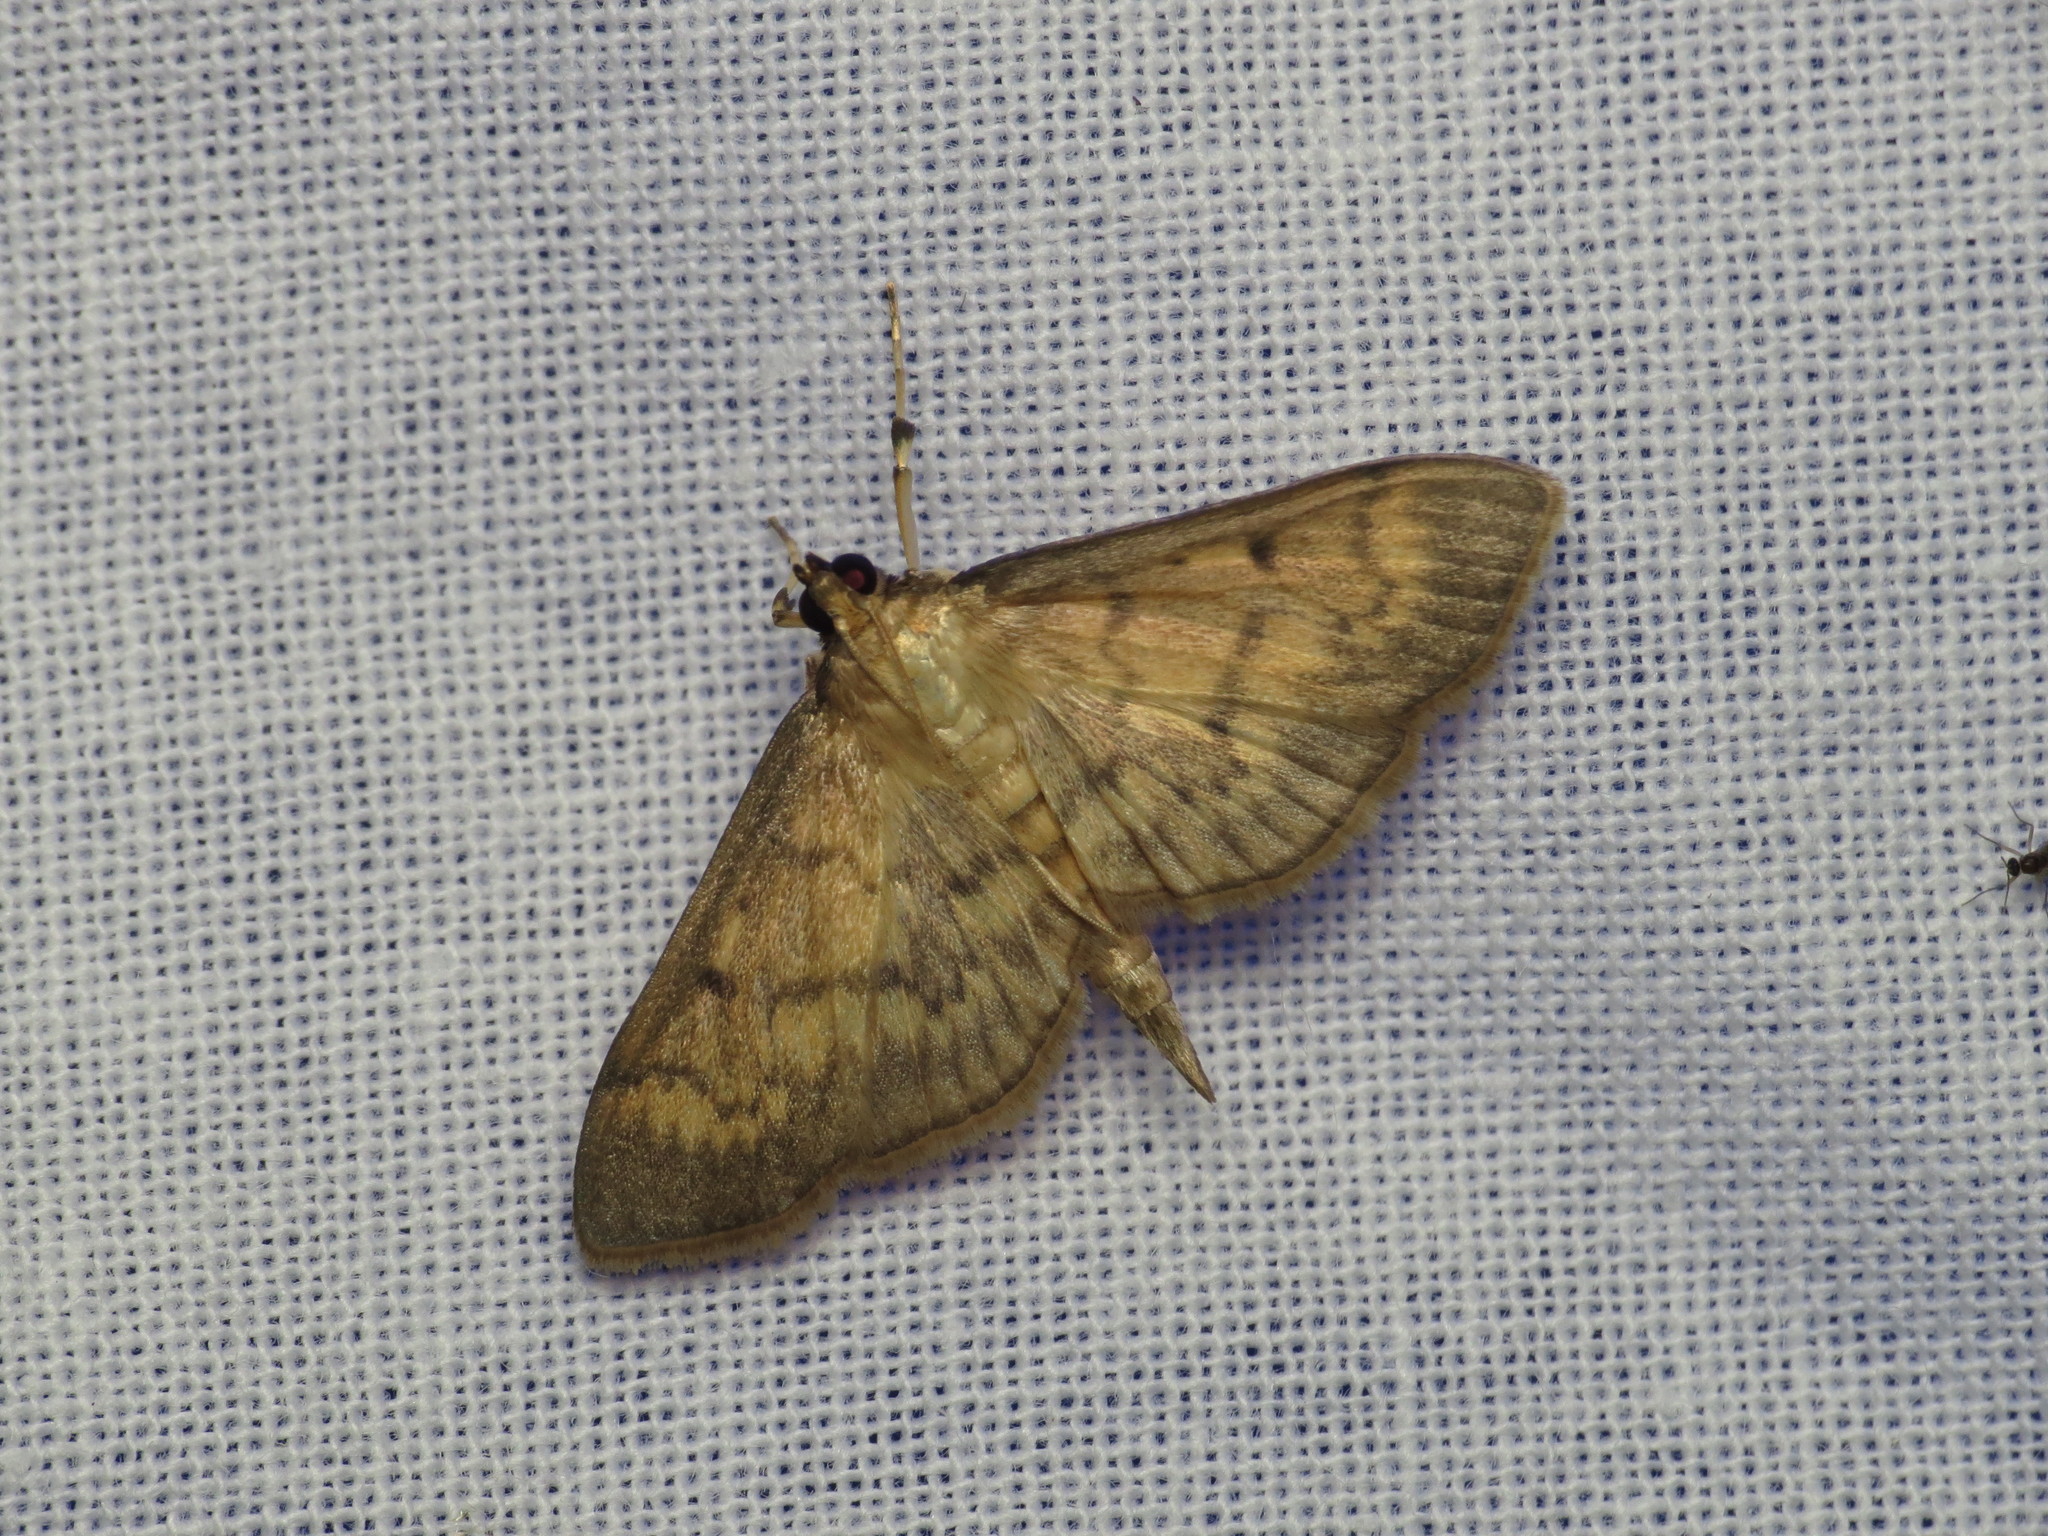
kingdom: Animalia
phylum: Arthropoda
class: Insecta
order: Lepidoptera
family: Crambidae
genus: Herpetogramma
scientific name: Herpetogramma fluctuosalis
